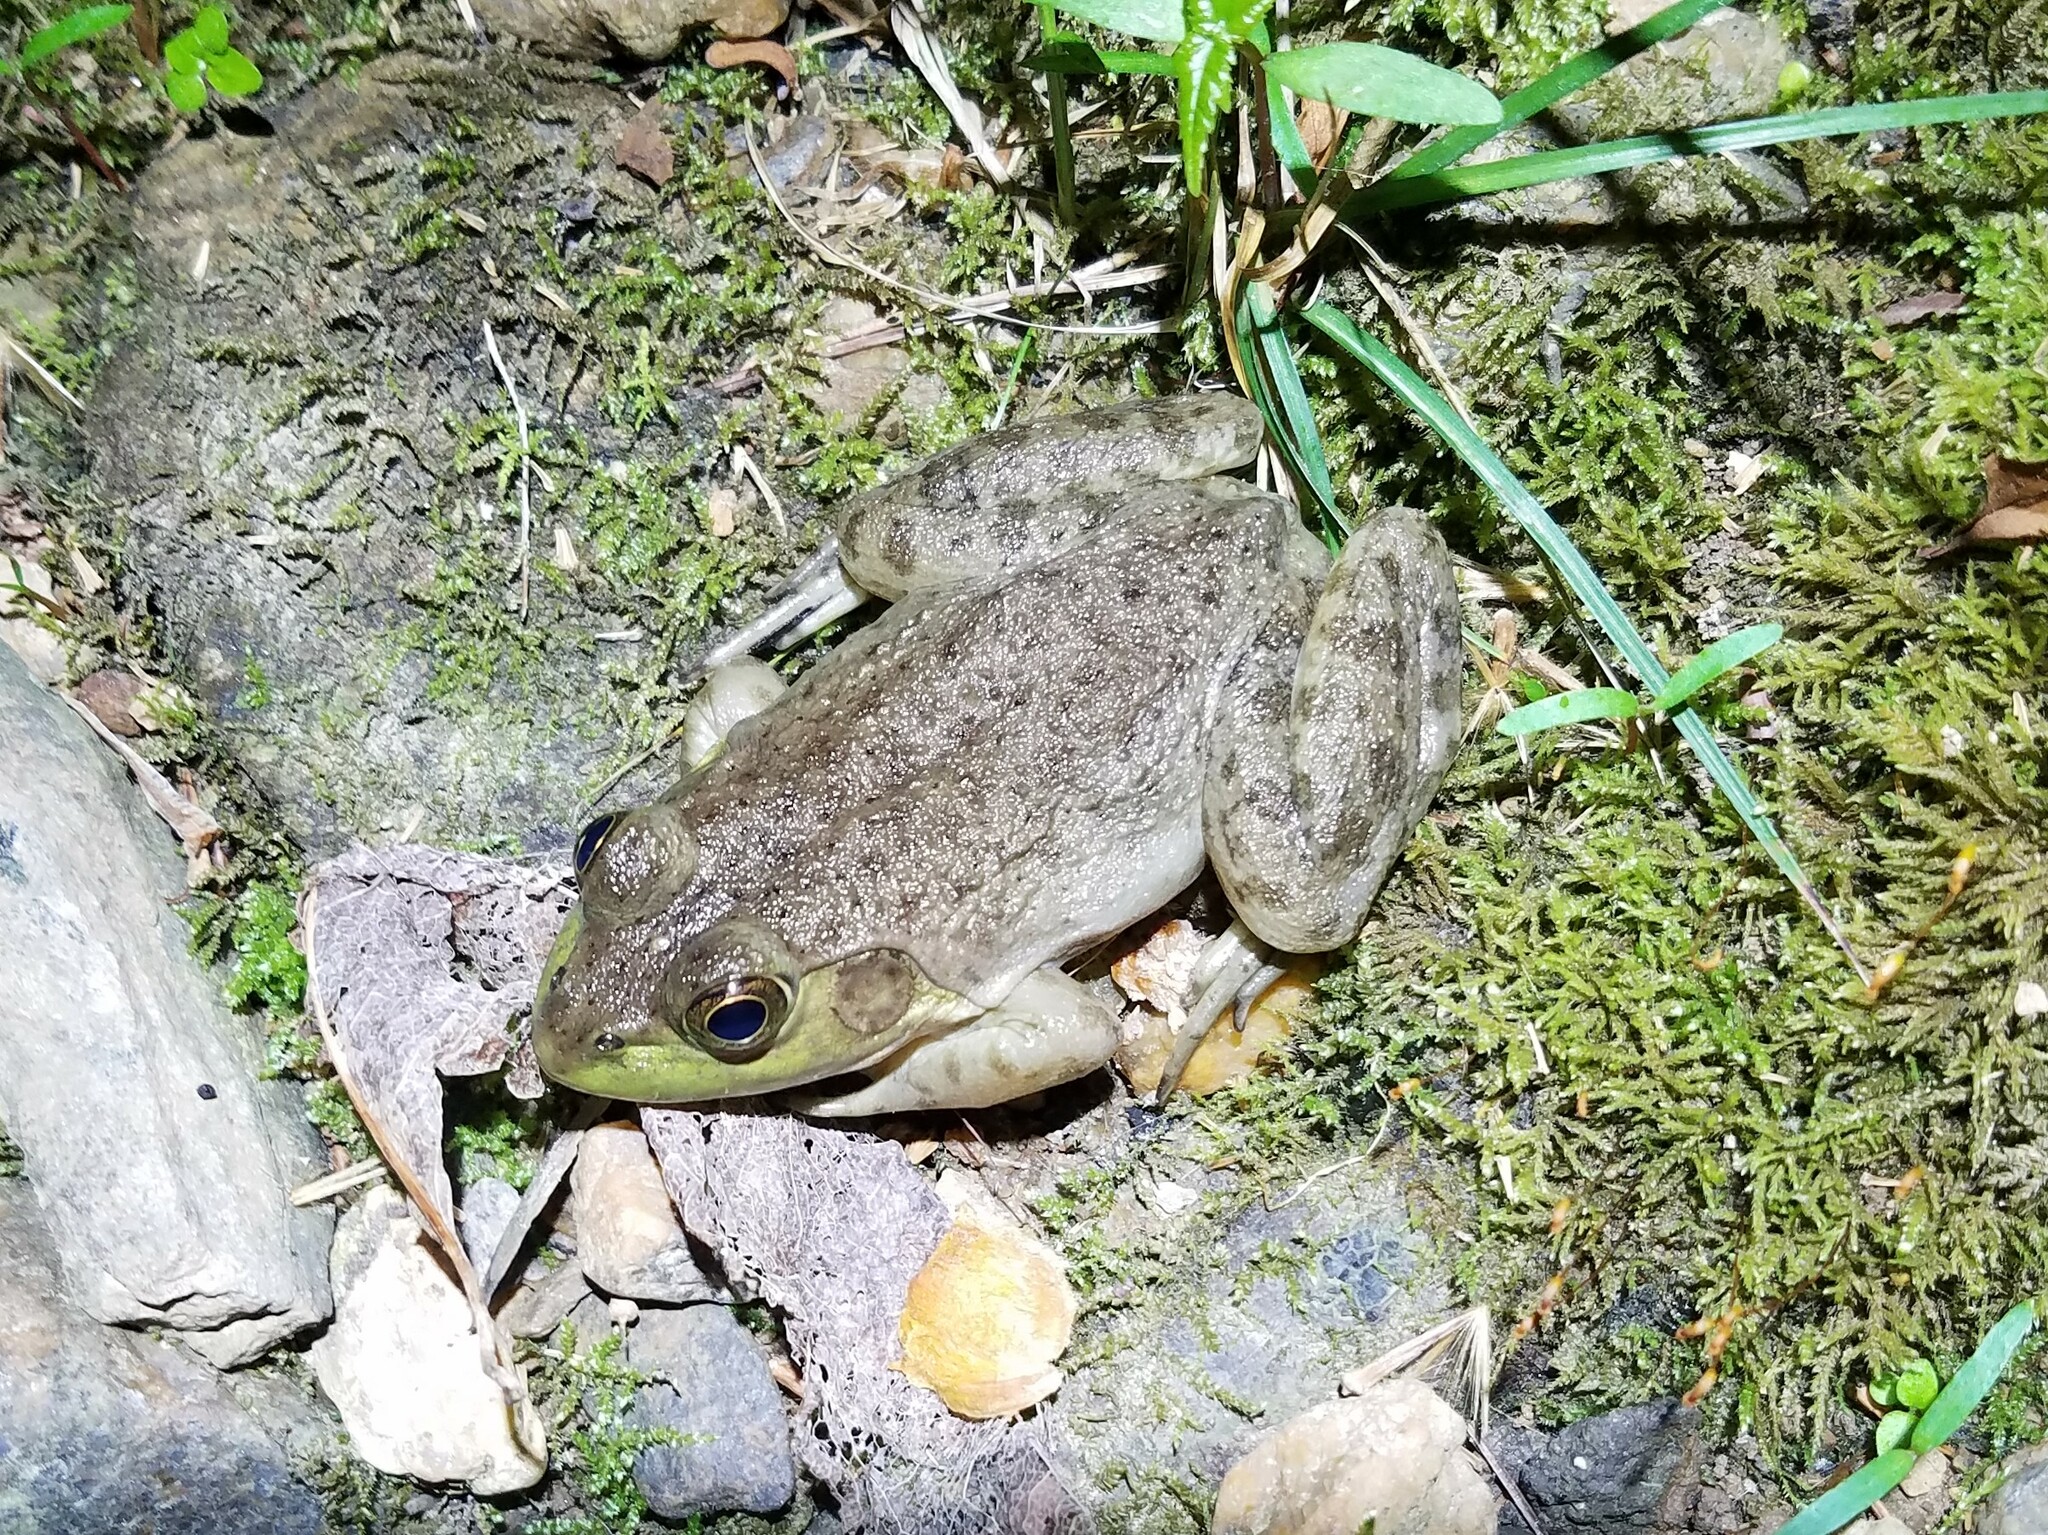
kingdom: Animalia
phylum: Chordata
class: Amphibia
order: Anura
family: Ranidae
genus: Lithobates
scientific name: Lithobates catesbeianus
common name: American bullfrog
